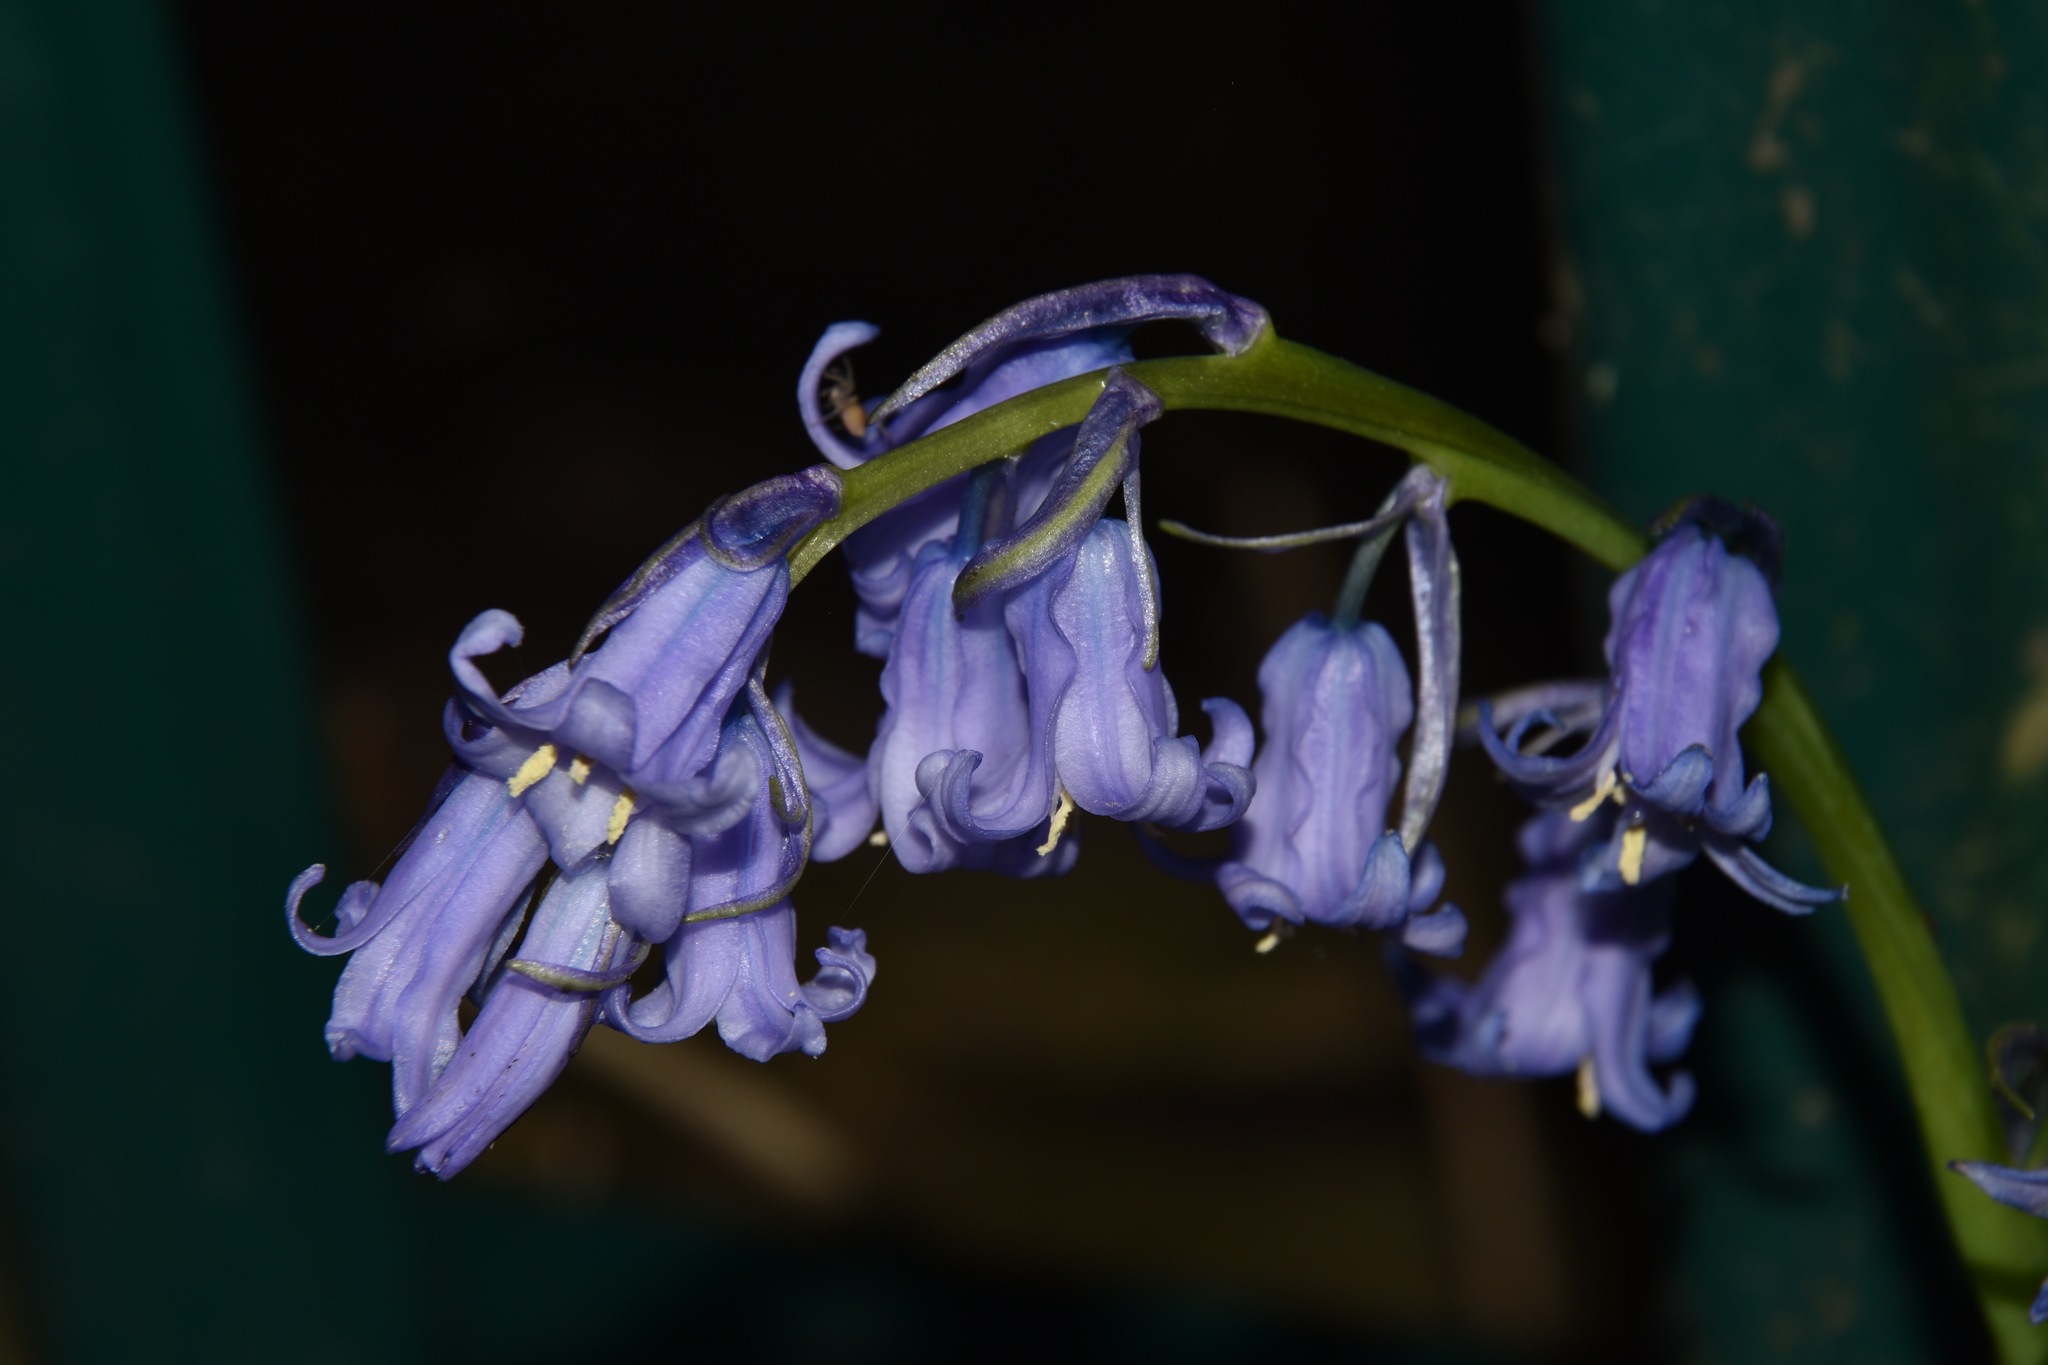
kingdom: Plantae
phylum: Tracheophyta
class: Liliopsida
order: Asparagales
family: Asparagaceae
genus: Hyacinthoides
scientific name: Hyacinthoides non-scripta
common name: Bluebell
